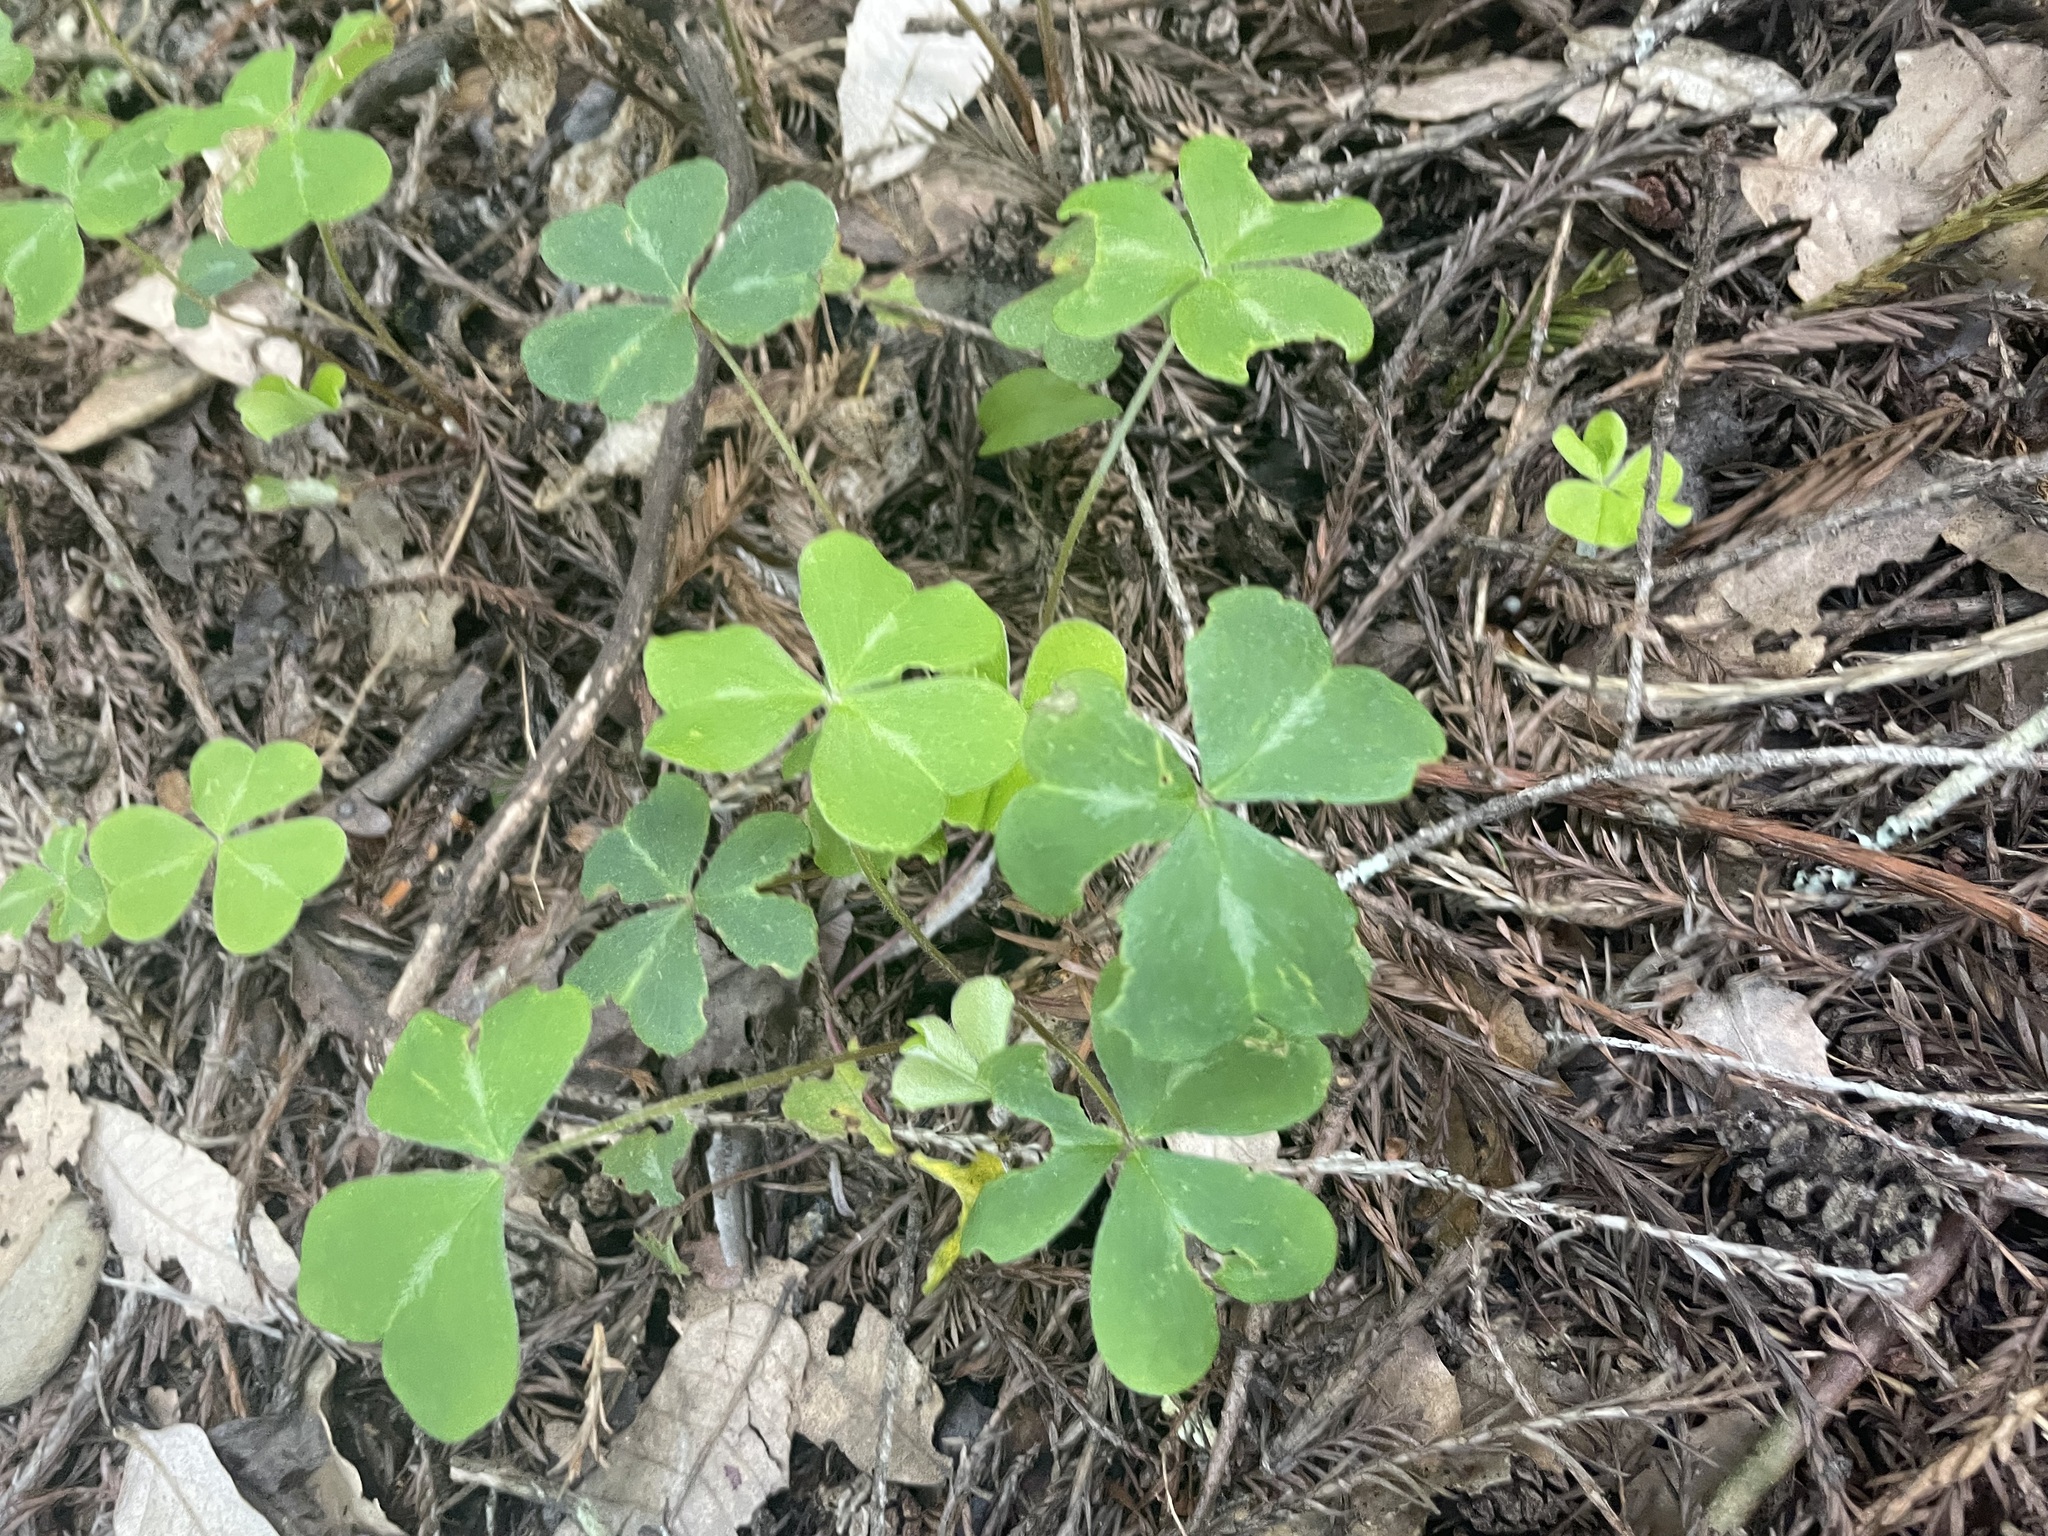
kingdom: Plantae
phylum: Tracheophyta
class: Magnoliopsida
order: Oxalidales
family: Oxalidaceae
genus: Oxalis
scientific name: Oxalis oregana
